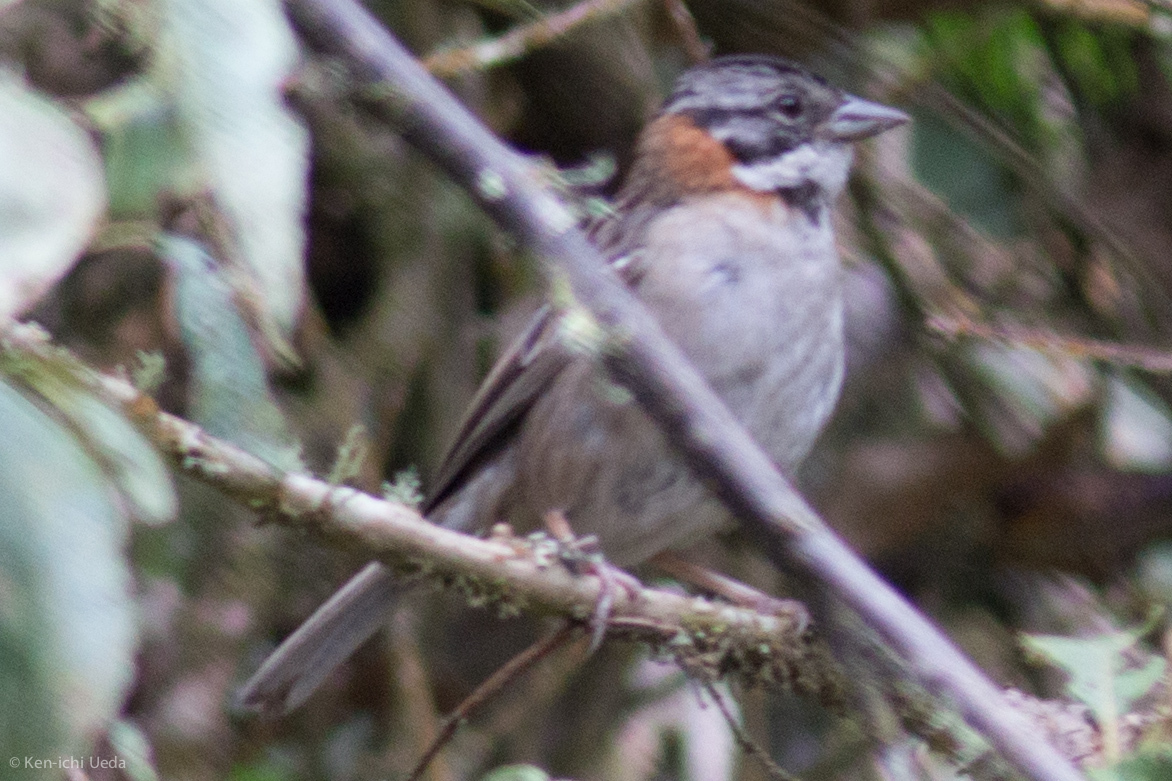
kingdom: Animalia
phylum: Chordata
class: Aves
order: Passeriformes
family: Passerellidae
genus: Zonotrichia
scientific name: Zonotrichia capensis
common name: Rufous-collared sparrow
